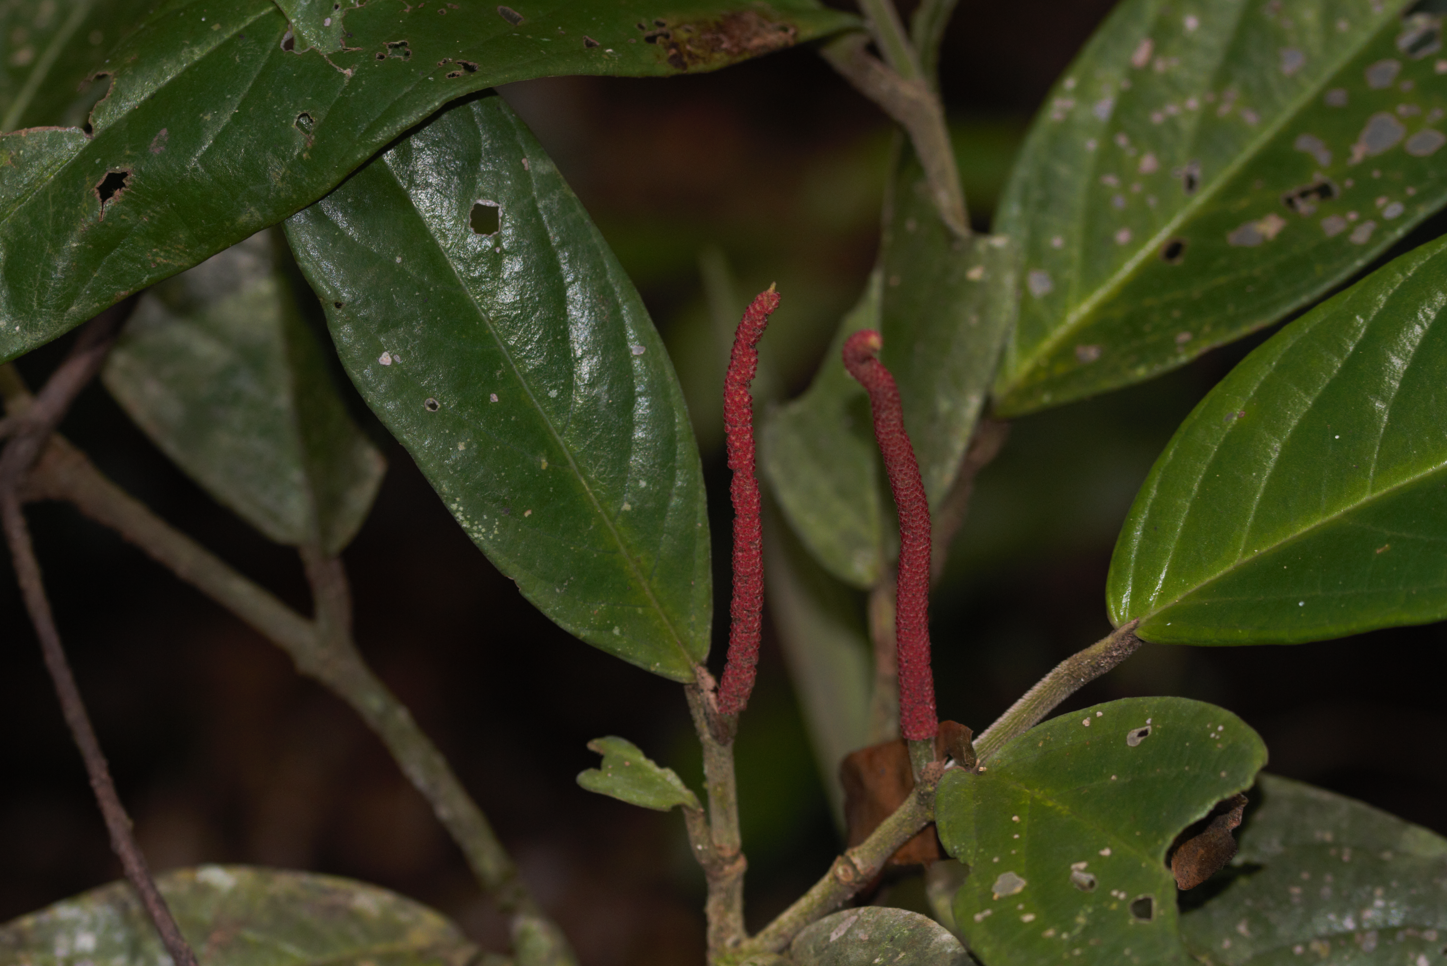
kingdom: Plantae
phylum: Tracheophyta
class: Magnoliopsida
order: Piperales
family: Piperaceae
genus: Piper
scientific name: Piper trichoneuron
